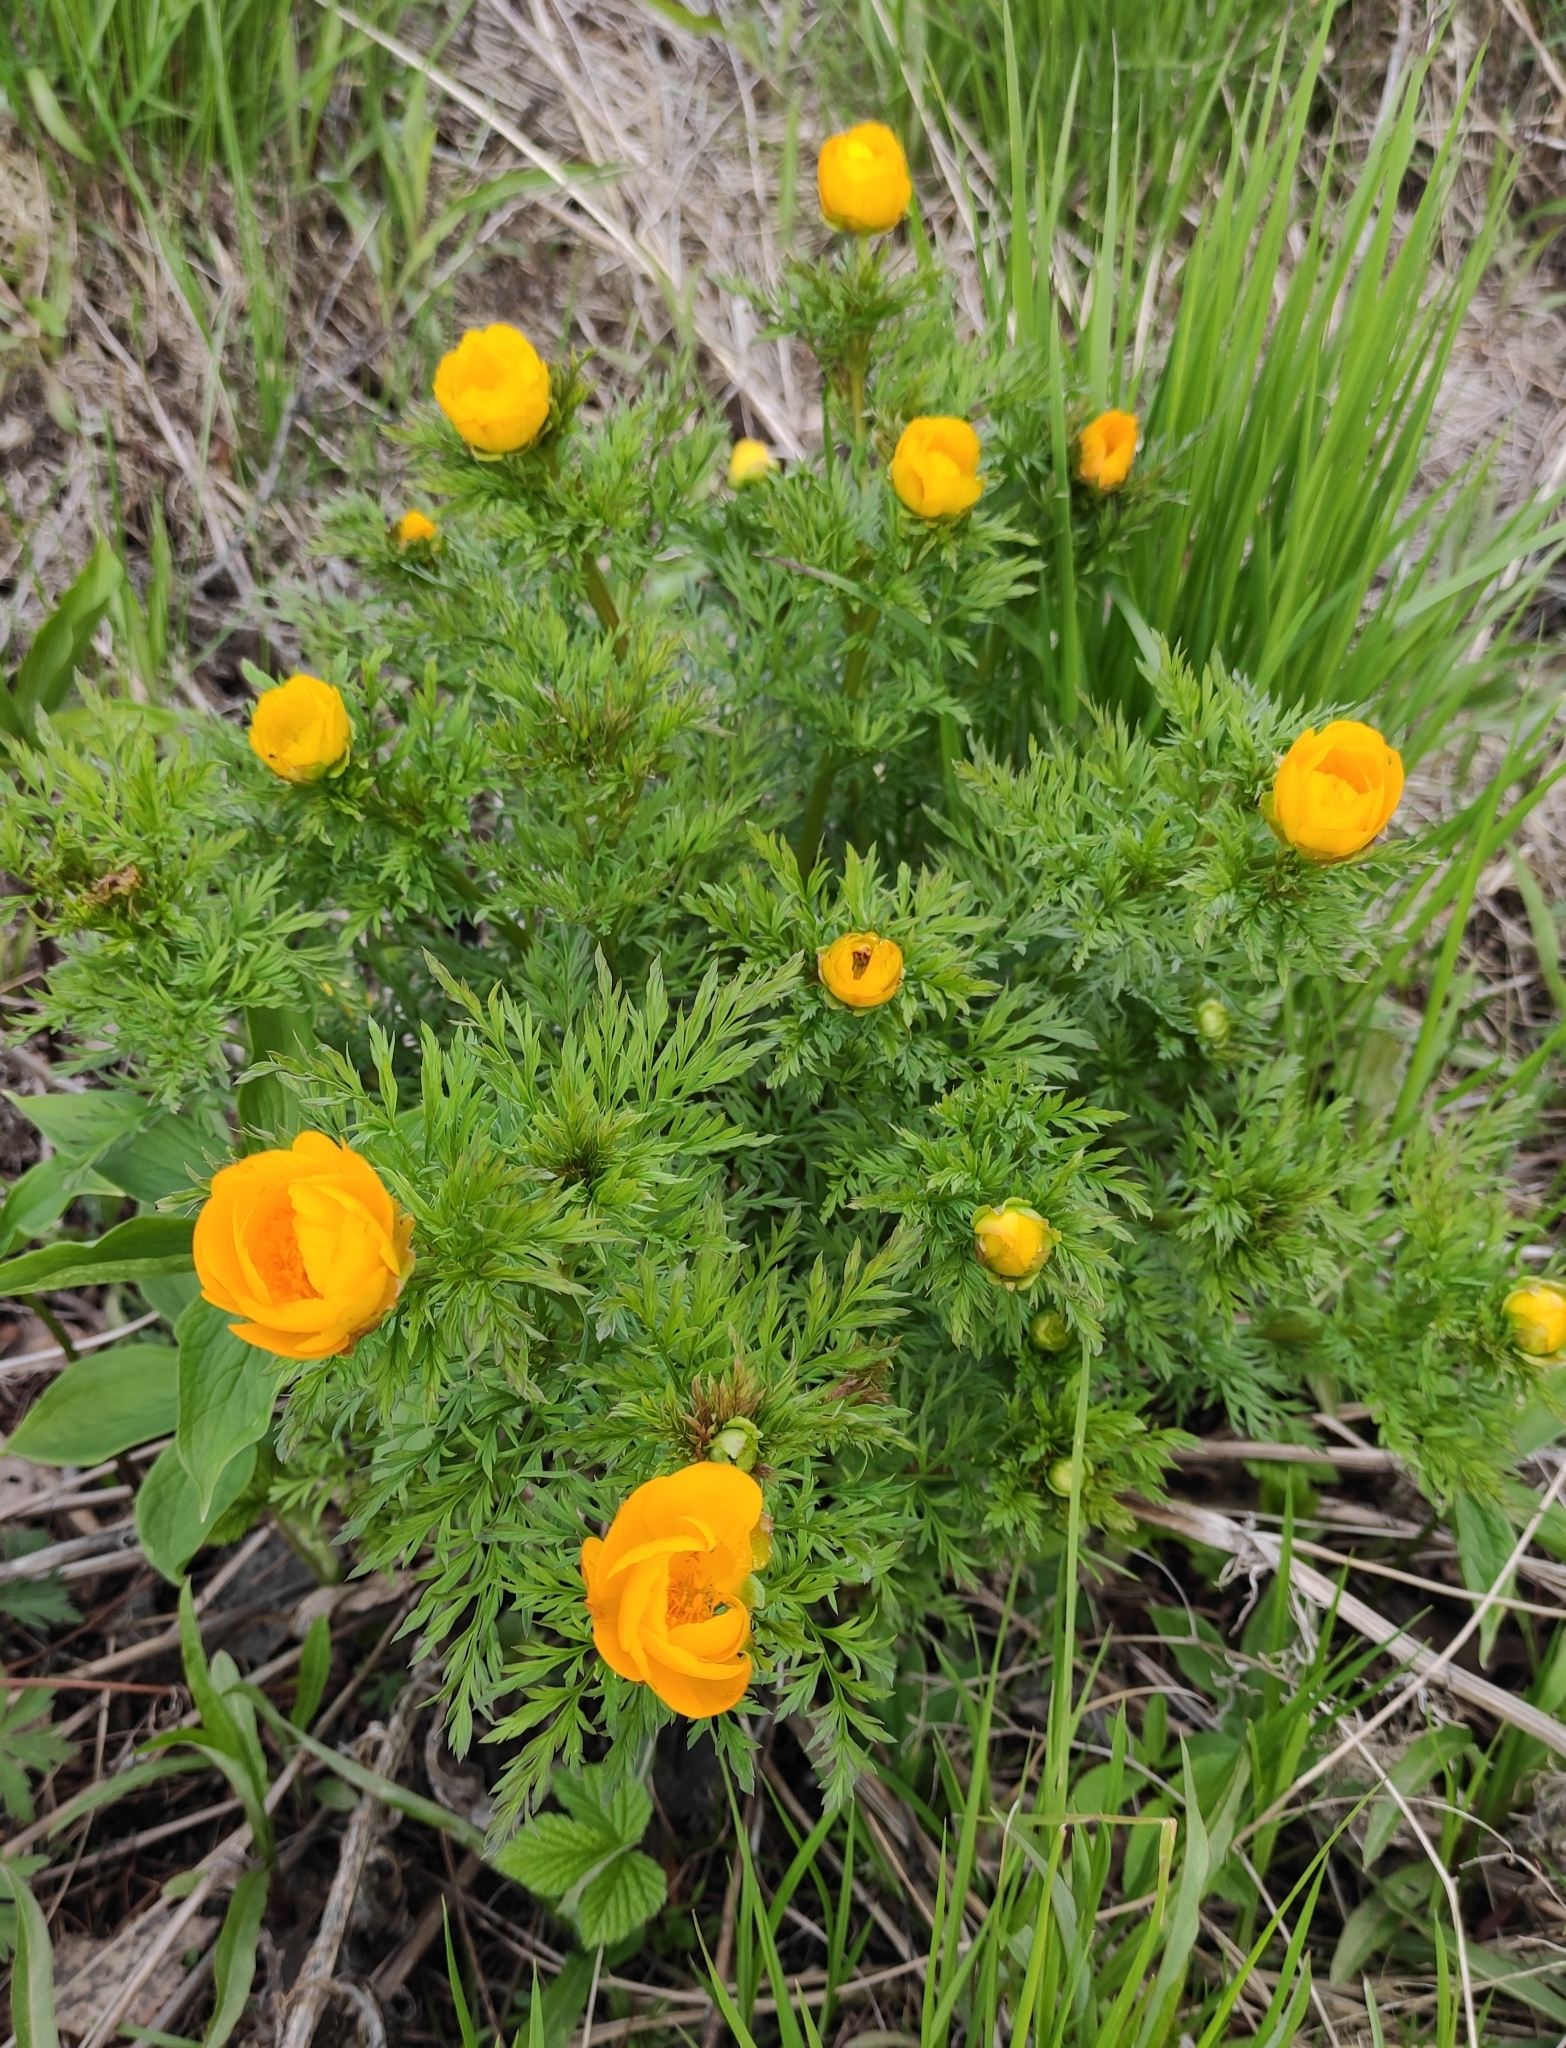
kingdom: Plantae
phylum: Tracheophyta
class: Magnoliopsida
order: Ranunculales
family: Ranunculaceae
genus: Adonis
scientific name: Adonis
